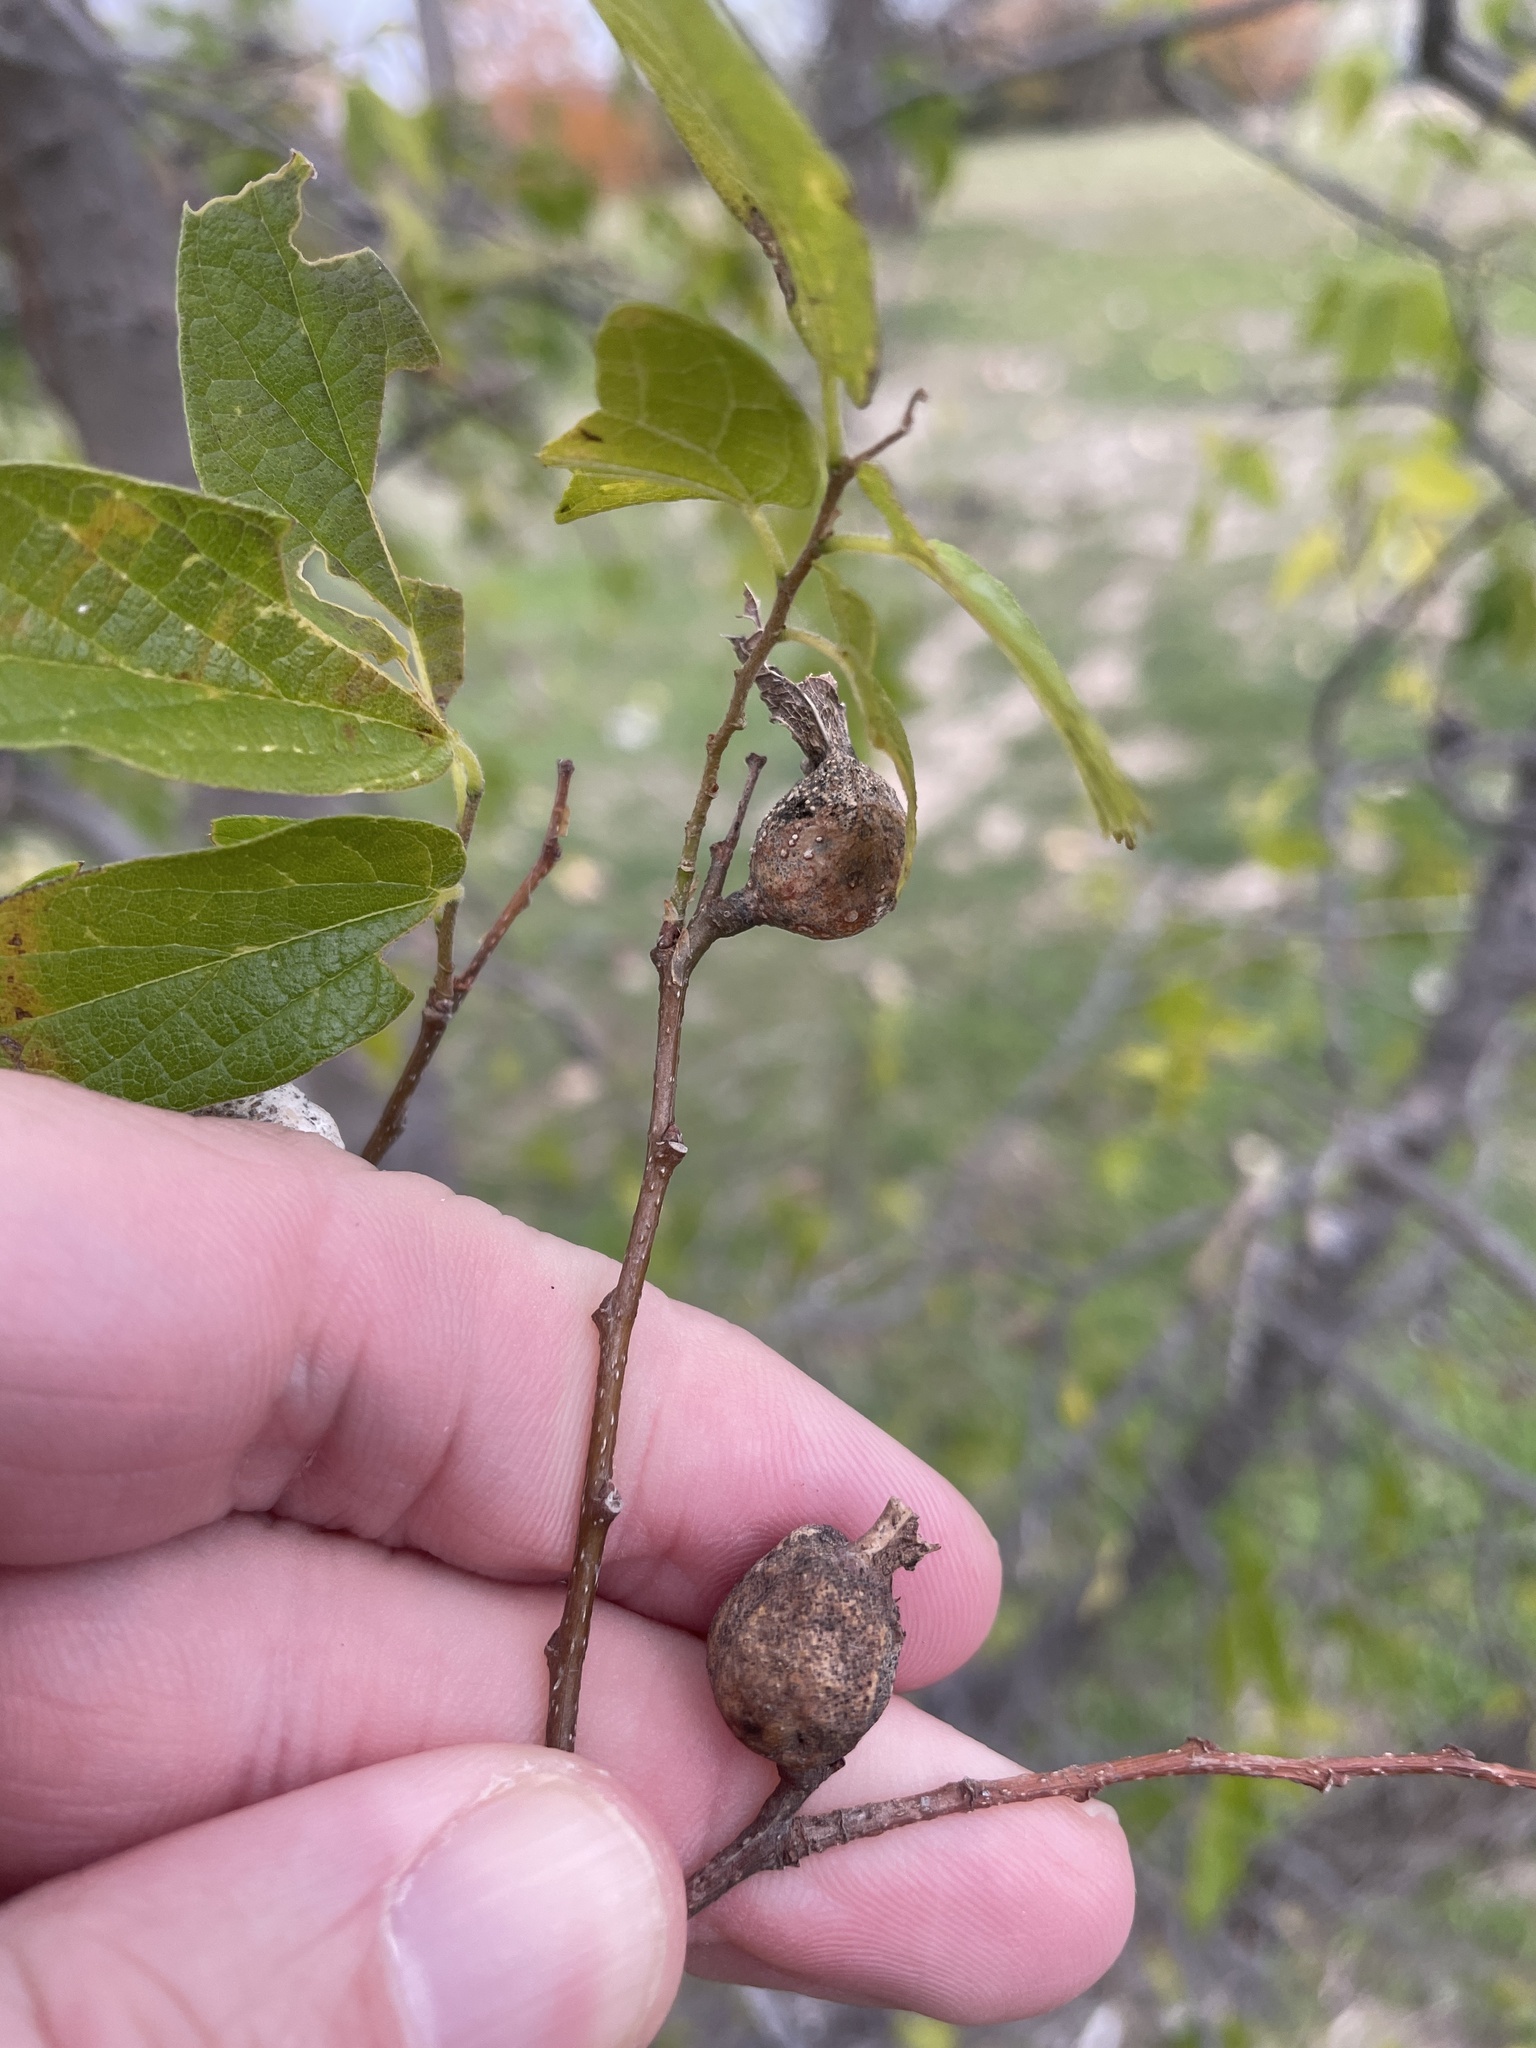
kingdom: Animalia
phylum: Arthropoda
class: Insecta
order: Hemiptera
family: Aphalaridae
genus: Pachypsylla
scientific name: Pachypsylla venusta
